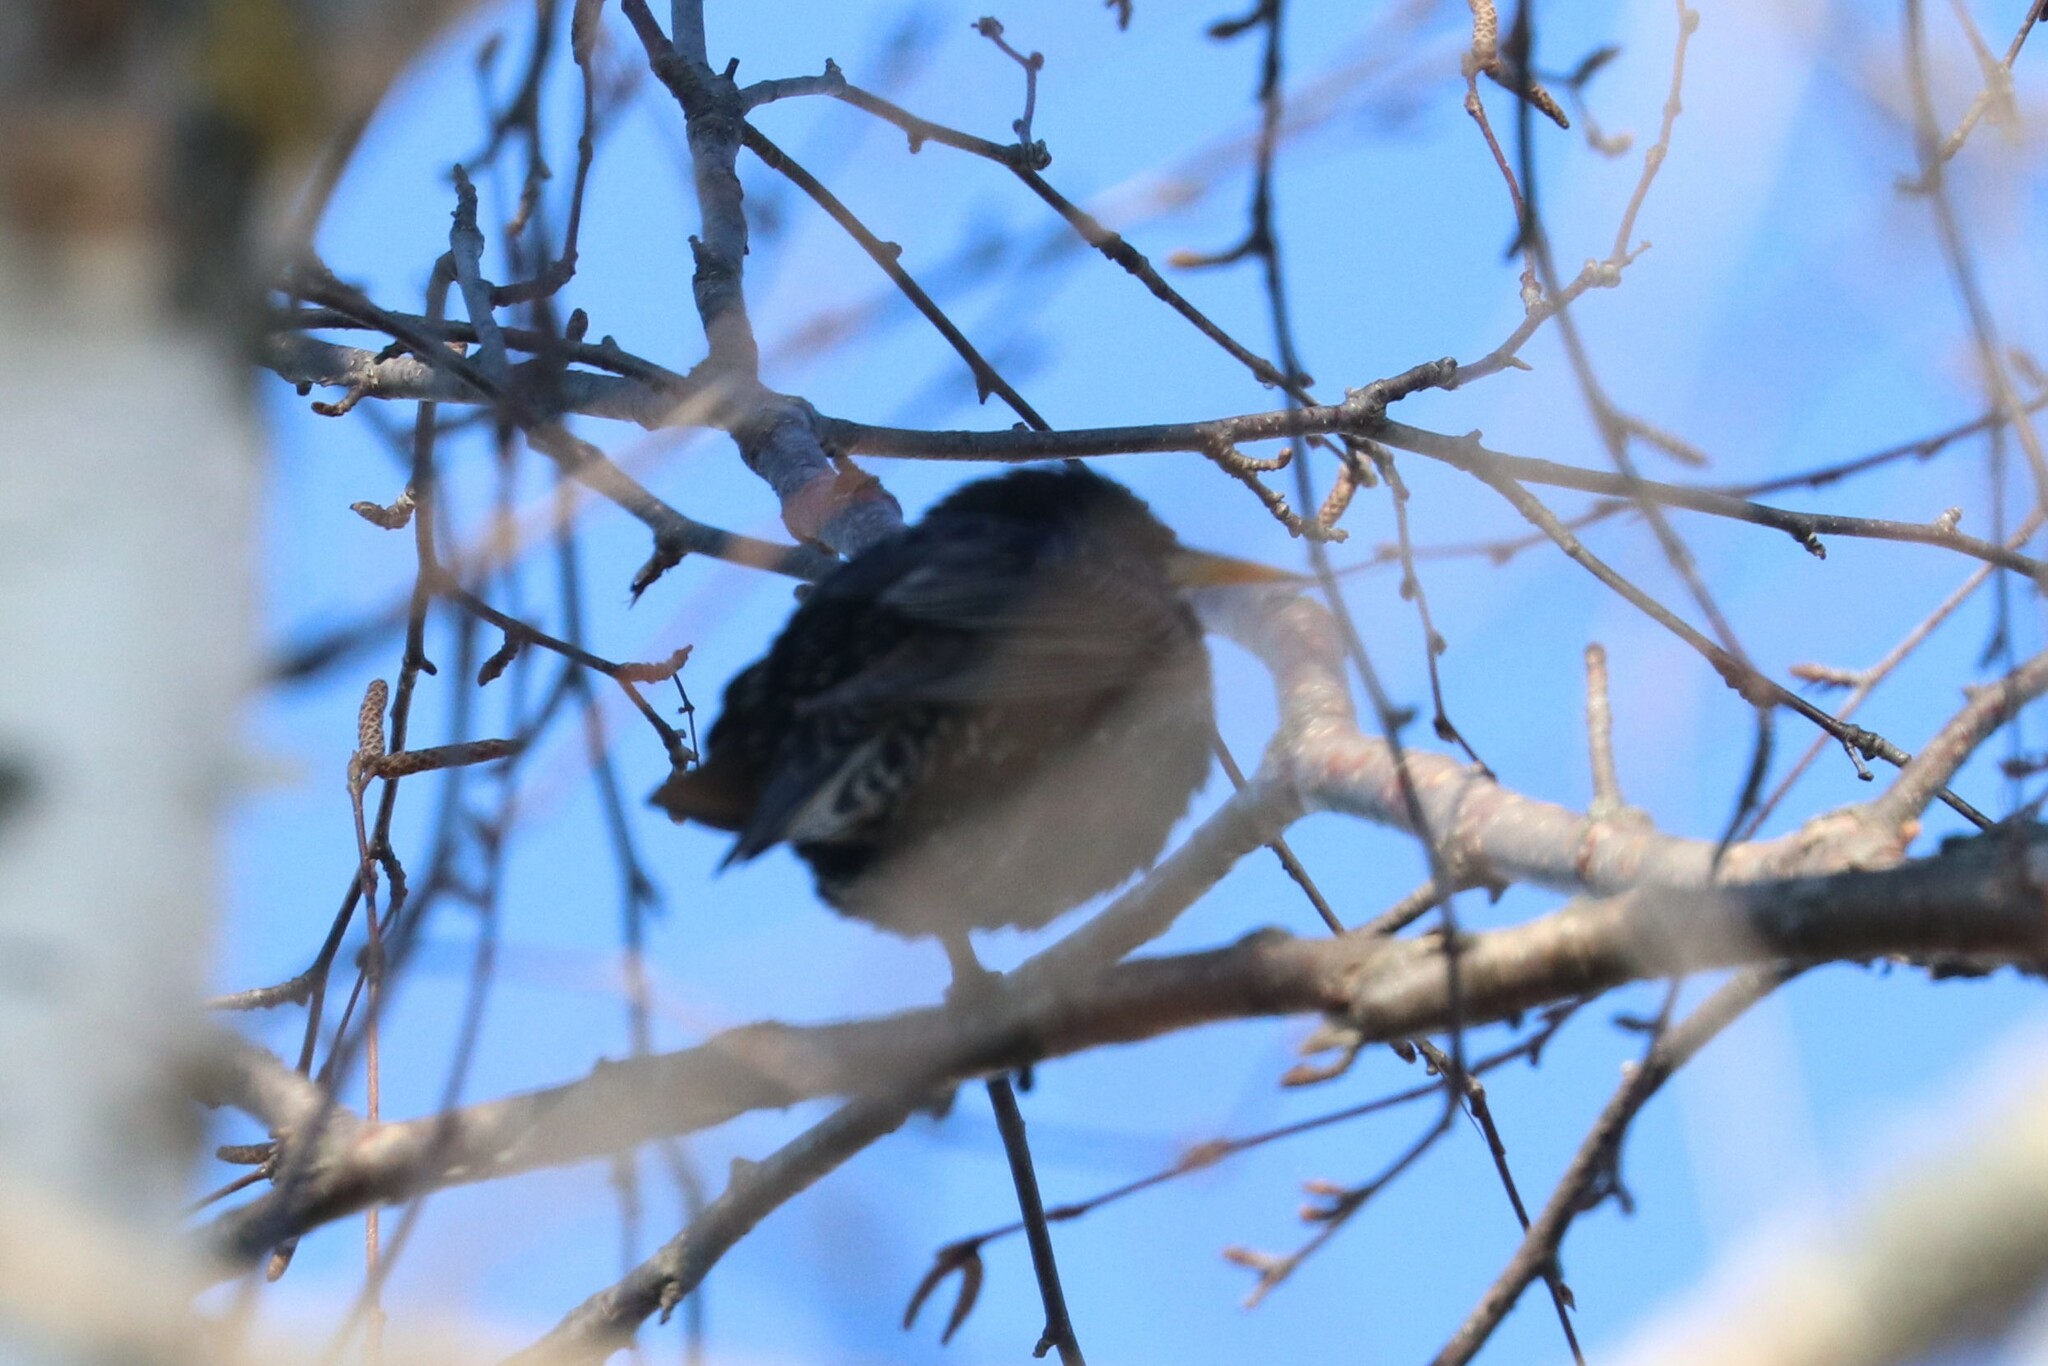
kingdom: Animalia
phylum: Chordata
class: Aves
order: Passeriformes
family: Sturnidae
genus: Sturnus
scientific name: Sturnus vulgaris
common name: Common starling
